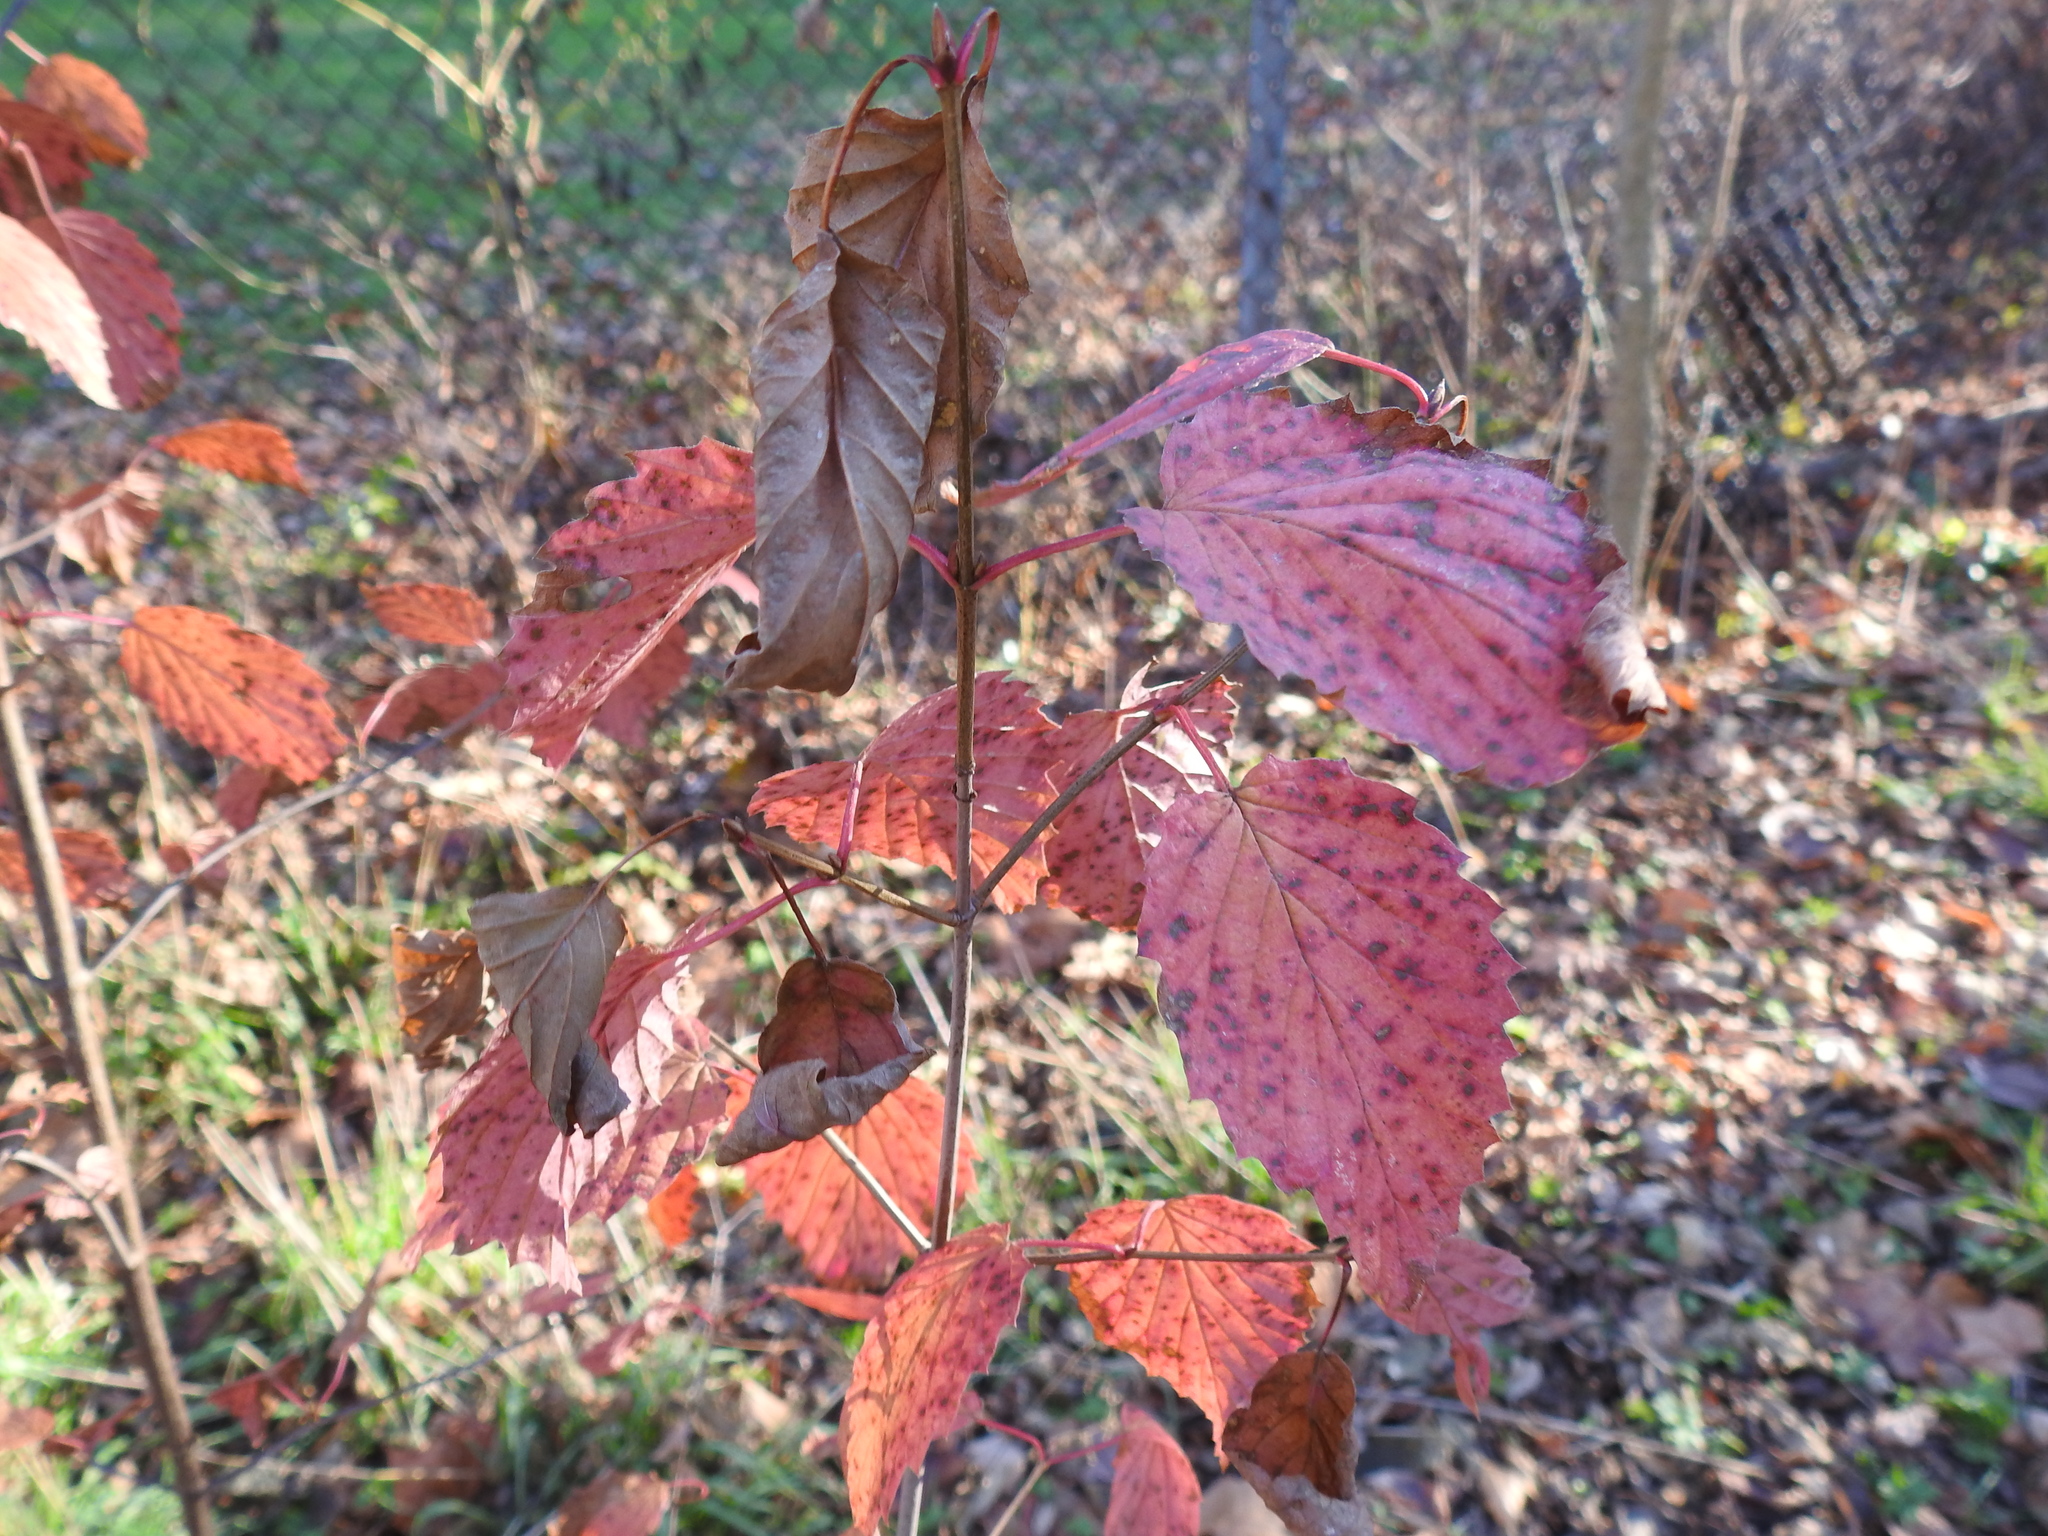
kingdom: Plantae
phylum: Tracheophyta
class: Magnoliopsida
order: Dipsacales
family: Viburnaceae
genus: Viburnum
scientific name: Viburnum recognitum
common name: Northern arrow-wood
